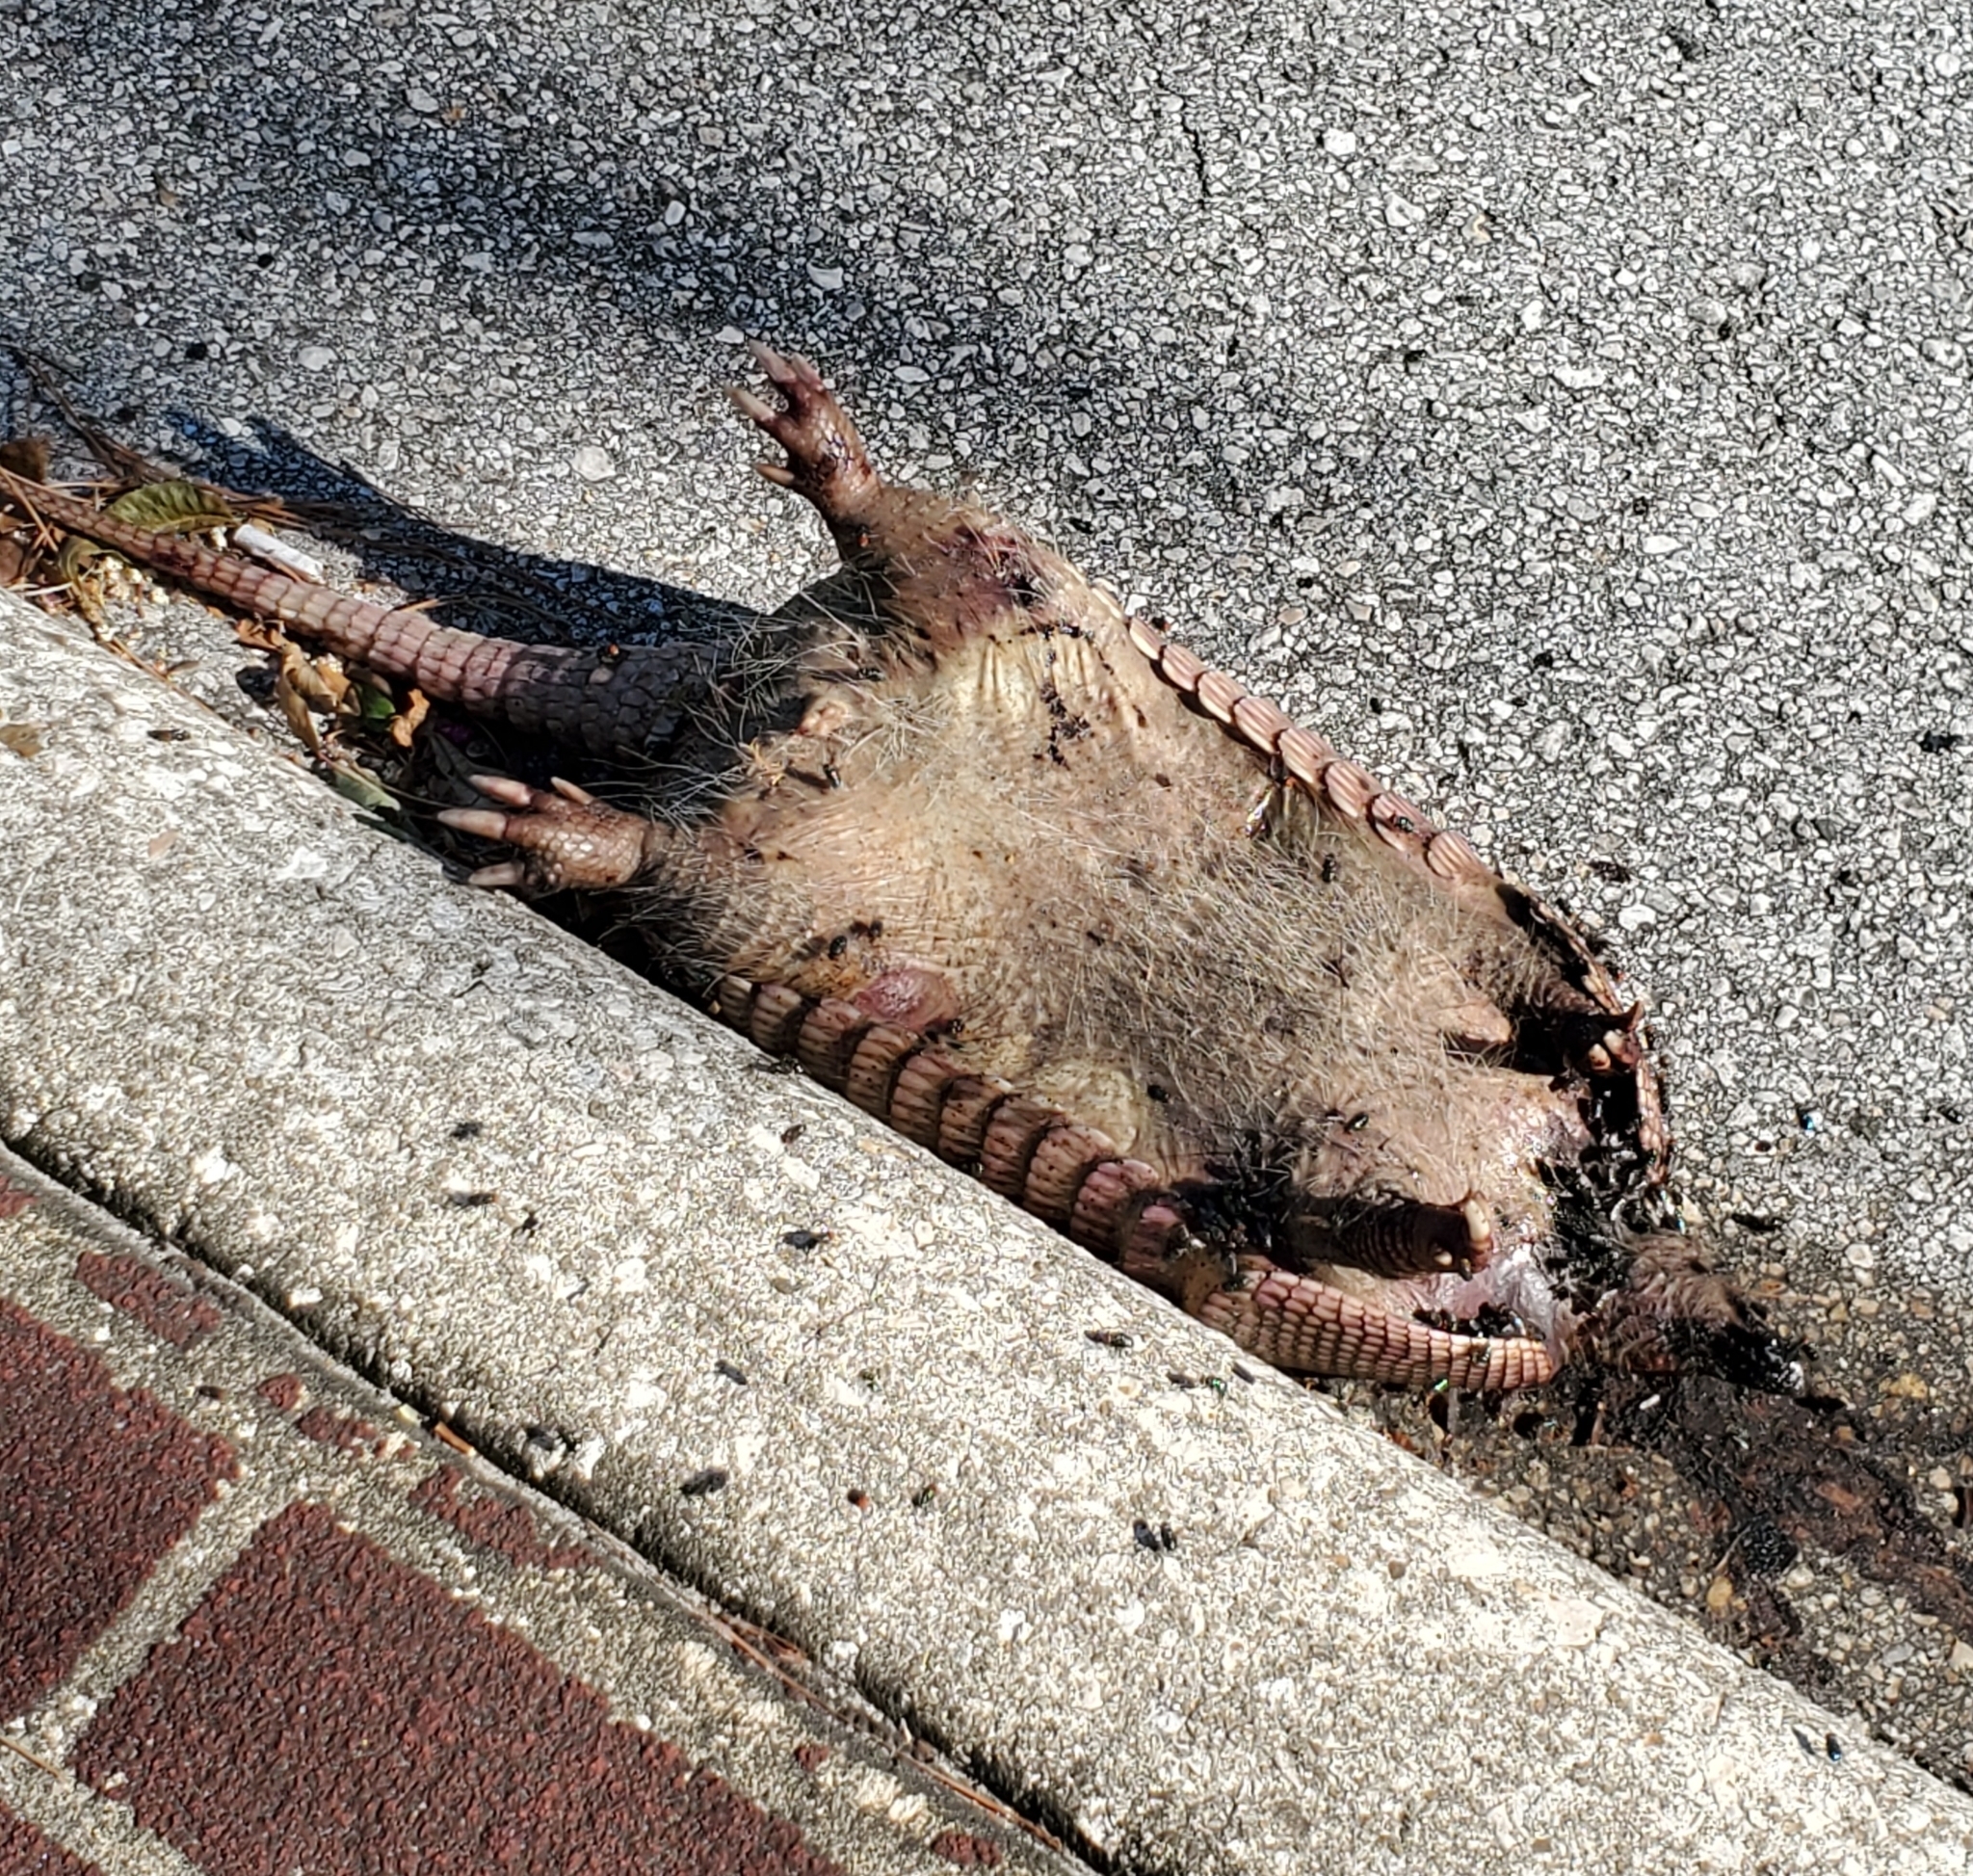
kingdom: Animalia
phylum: Chordata
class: Mammalia
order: Cingulata
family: Dasypodidae
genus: Dasypus
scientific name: Dasypus novemcinctus
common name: Nine-banded armadillo
